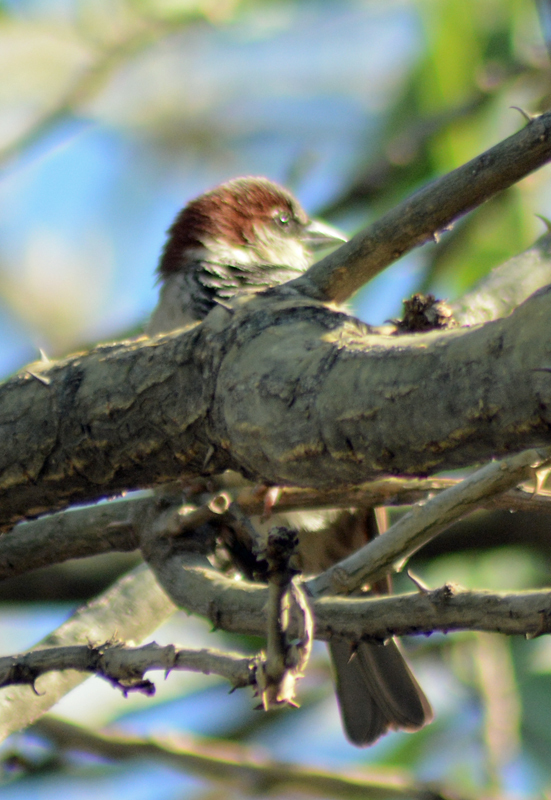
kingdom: Animalia
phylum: Chordata
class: Aves
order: Passeriformes
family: Passeridae
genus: Passer
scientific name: Passer domesticus
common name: House sparrow
